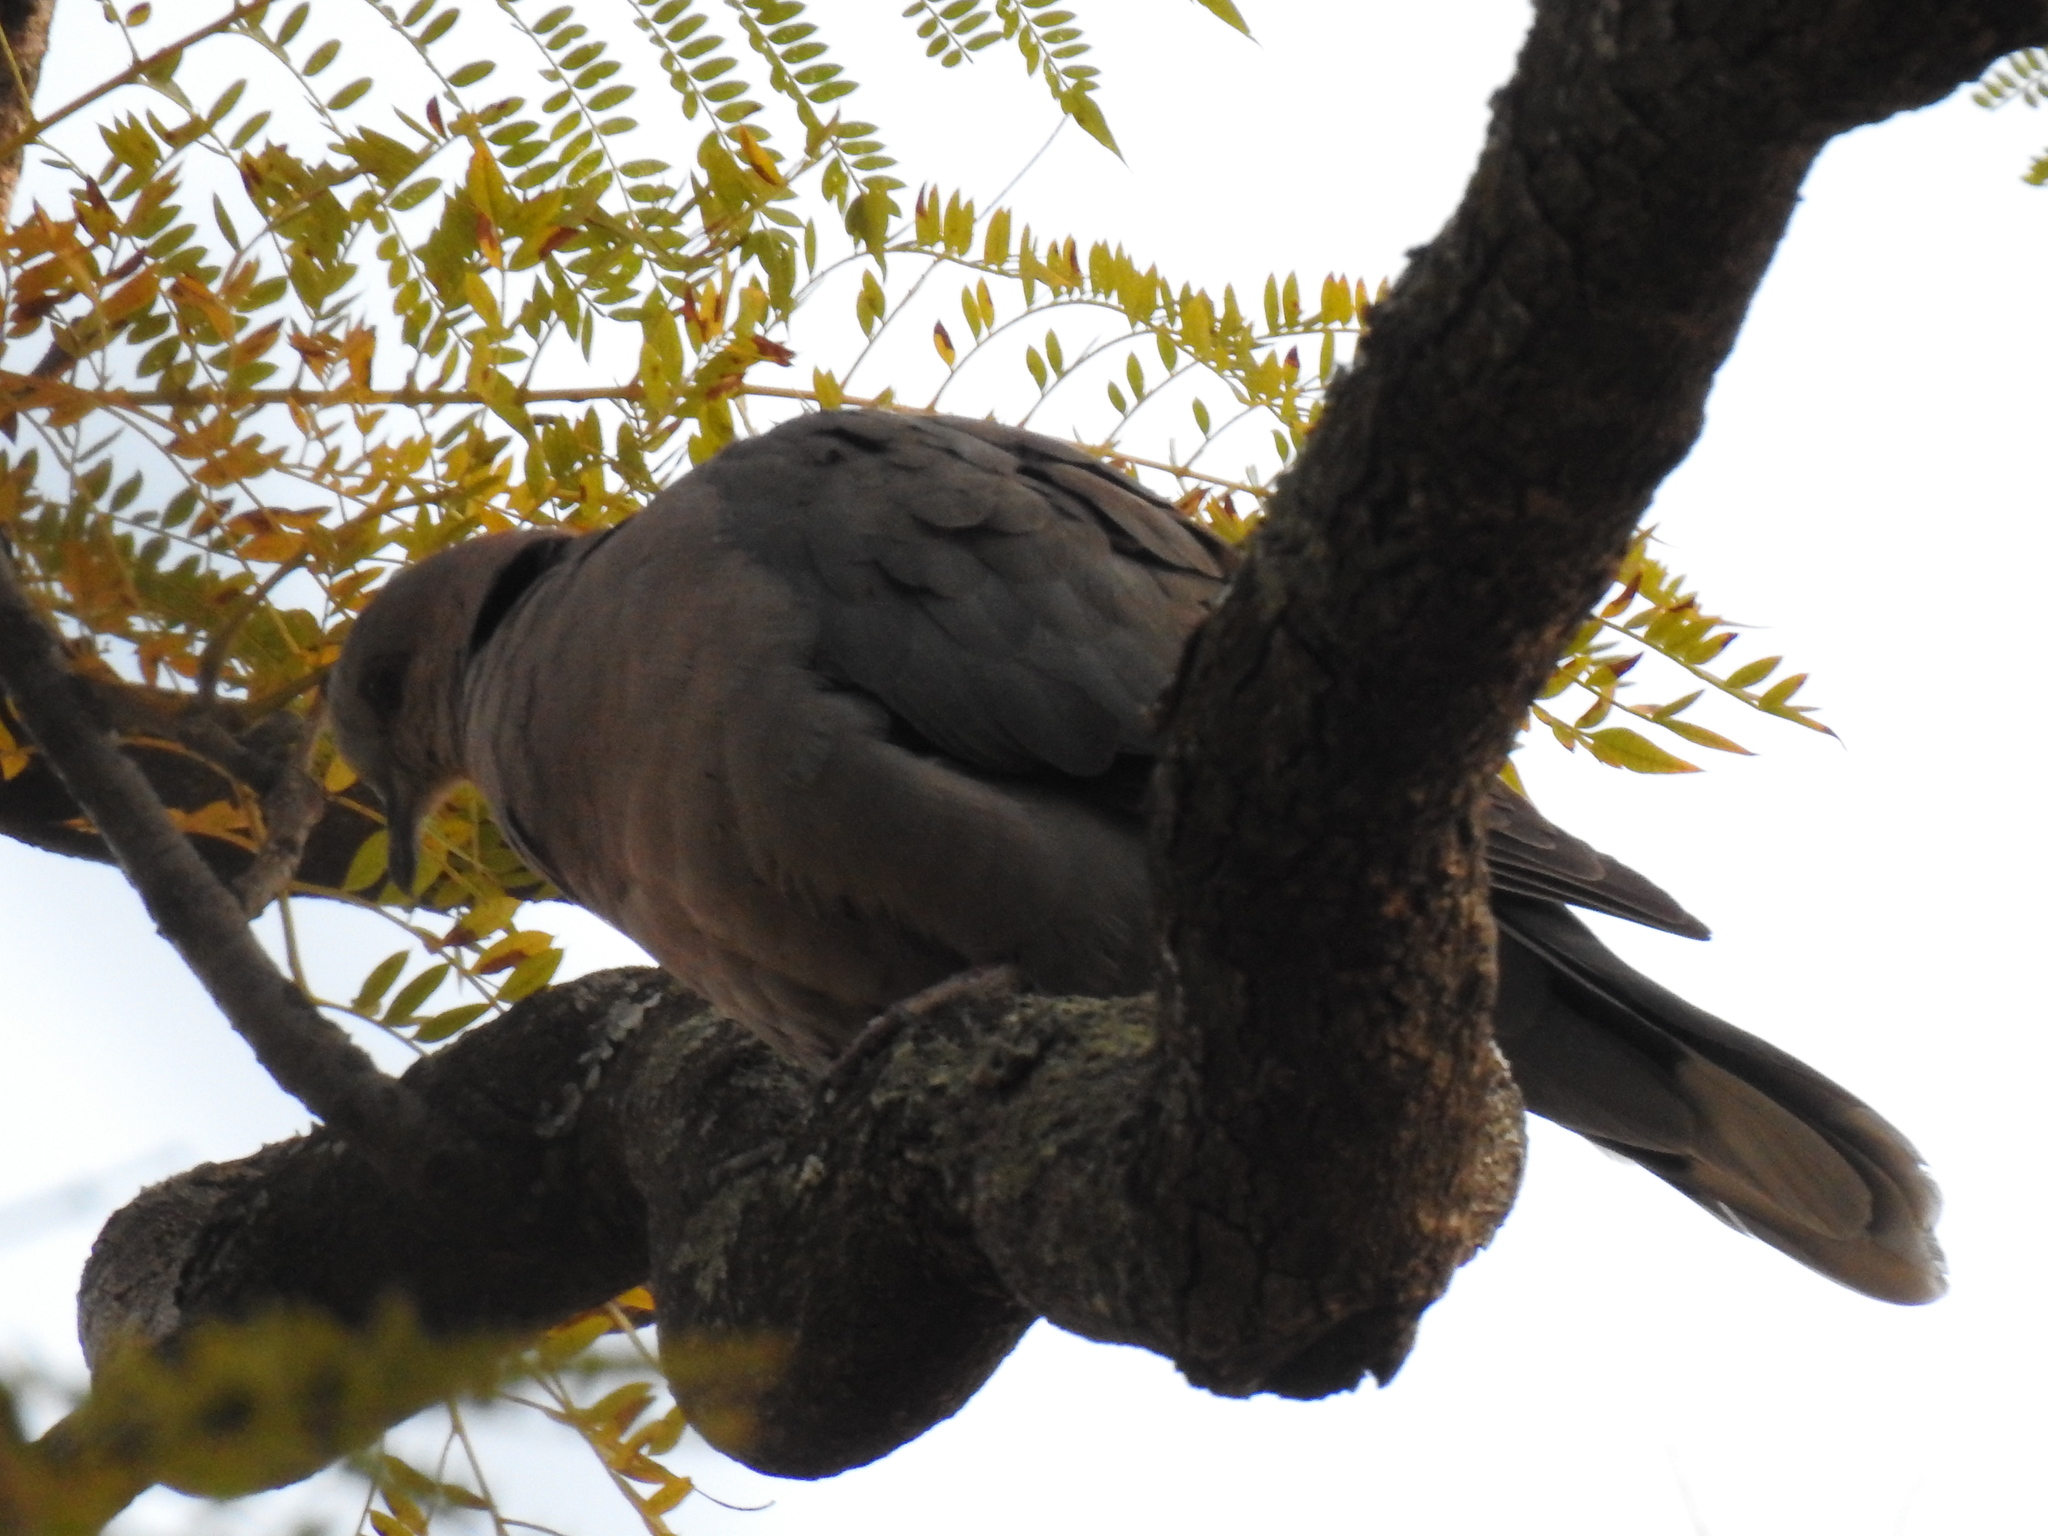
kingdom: Animalia
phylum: Chordata
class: Aves
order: Columbiformes
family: Columbidae
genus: Streptopelia
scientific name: Streptopelia capicola
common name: Ring-necked dove
